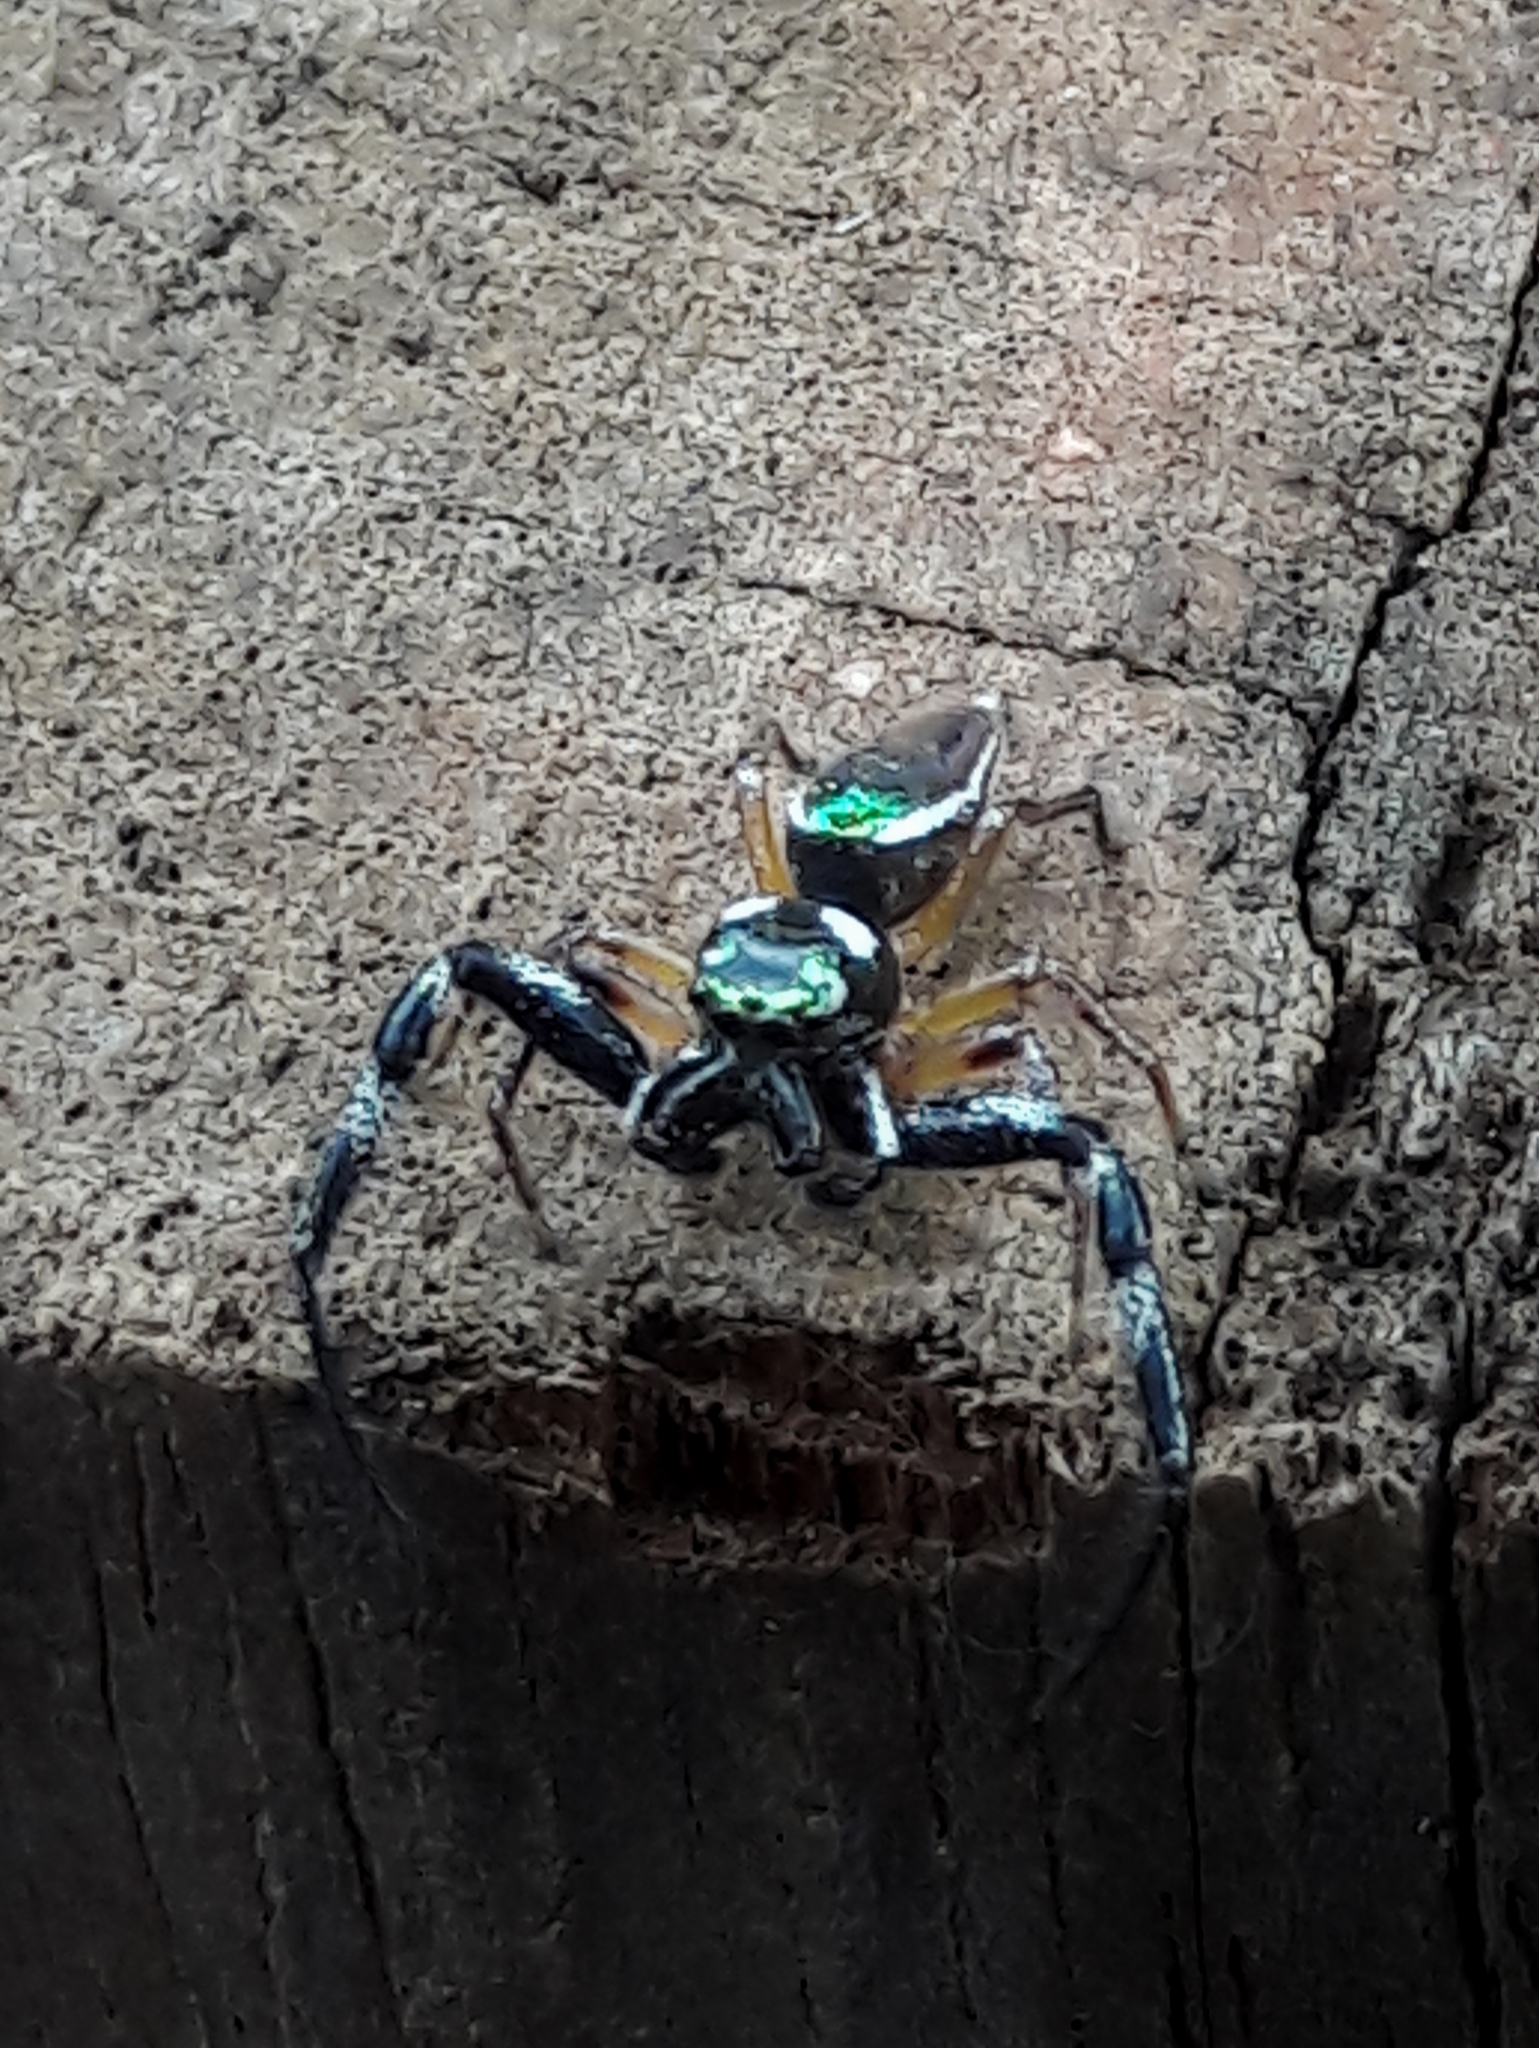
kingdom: Animalia
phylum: Arthropoda
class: Arachnida
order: Araneae
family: Salticidae
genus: Lurio
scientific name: Lurio
